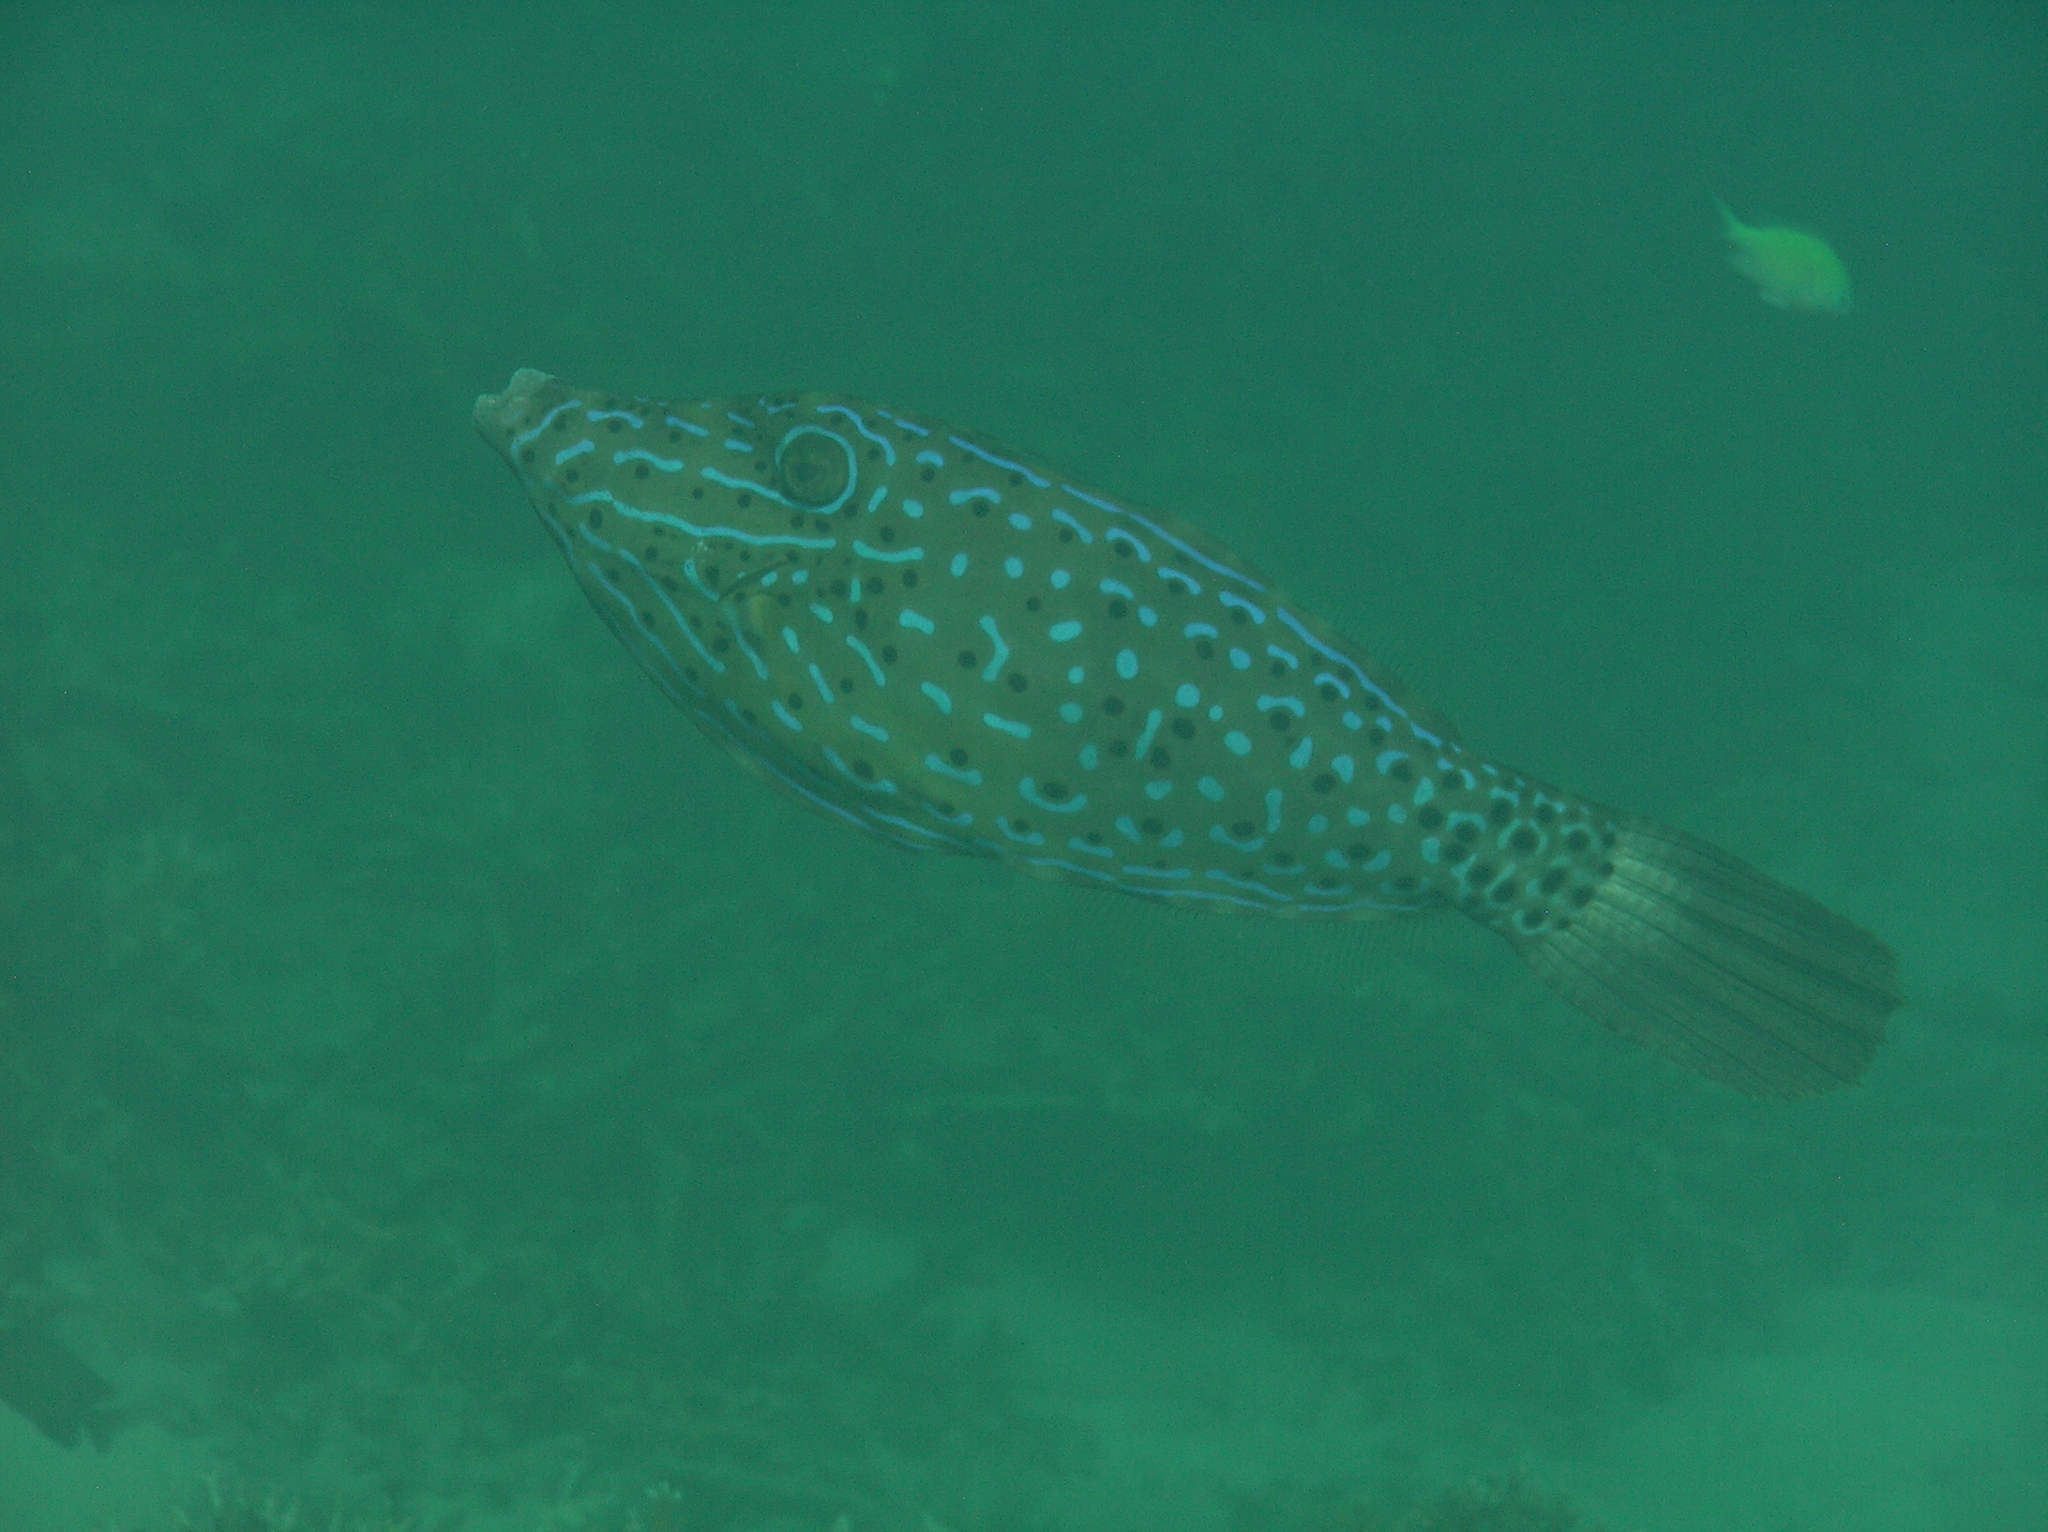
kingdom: Animalia
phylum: Chordata
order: Tetraodontiformes
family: Monacanthidae
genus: Aluterus
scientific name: Aluterus scriptus
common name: Scribbled leatherjacket filefish
